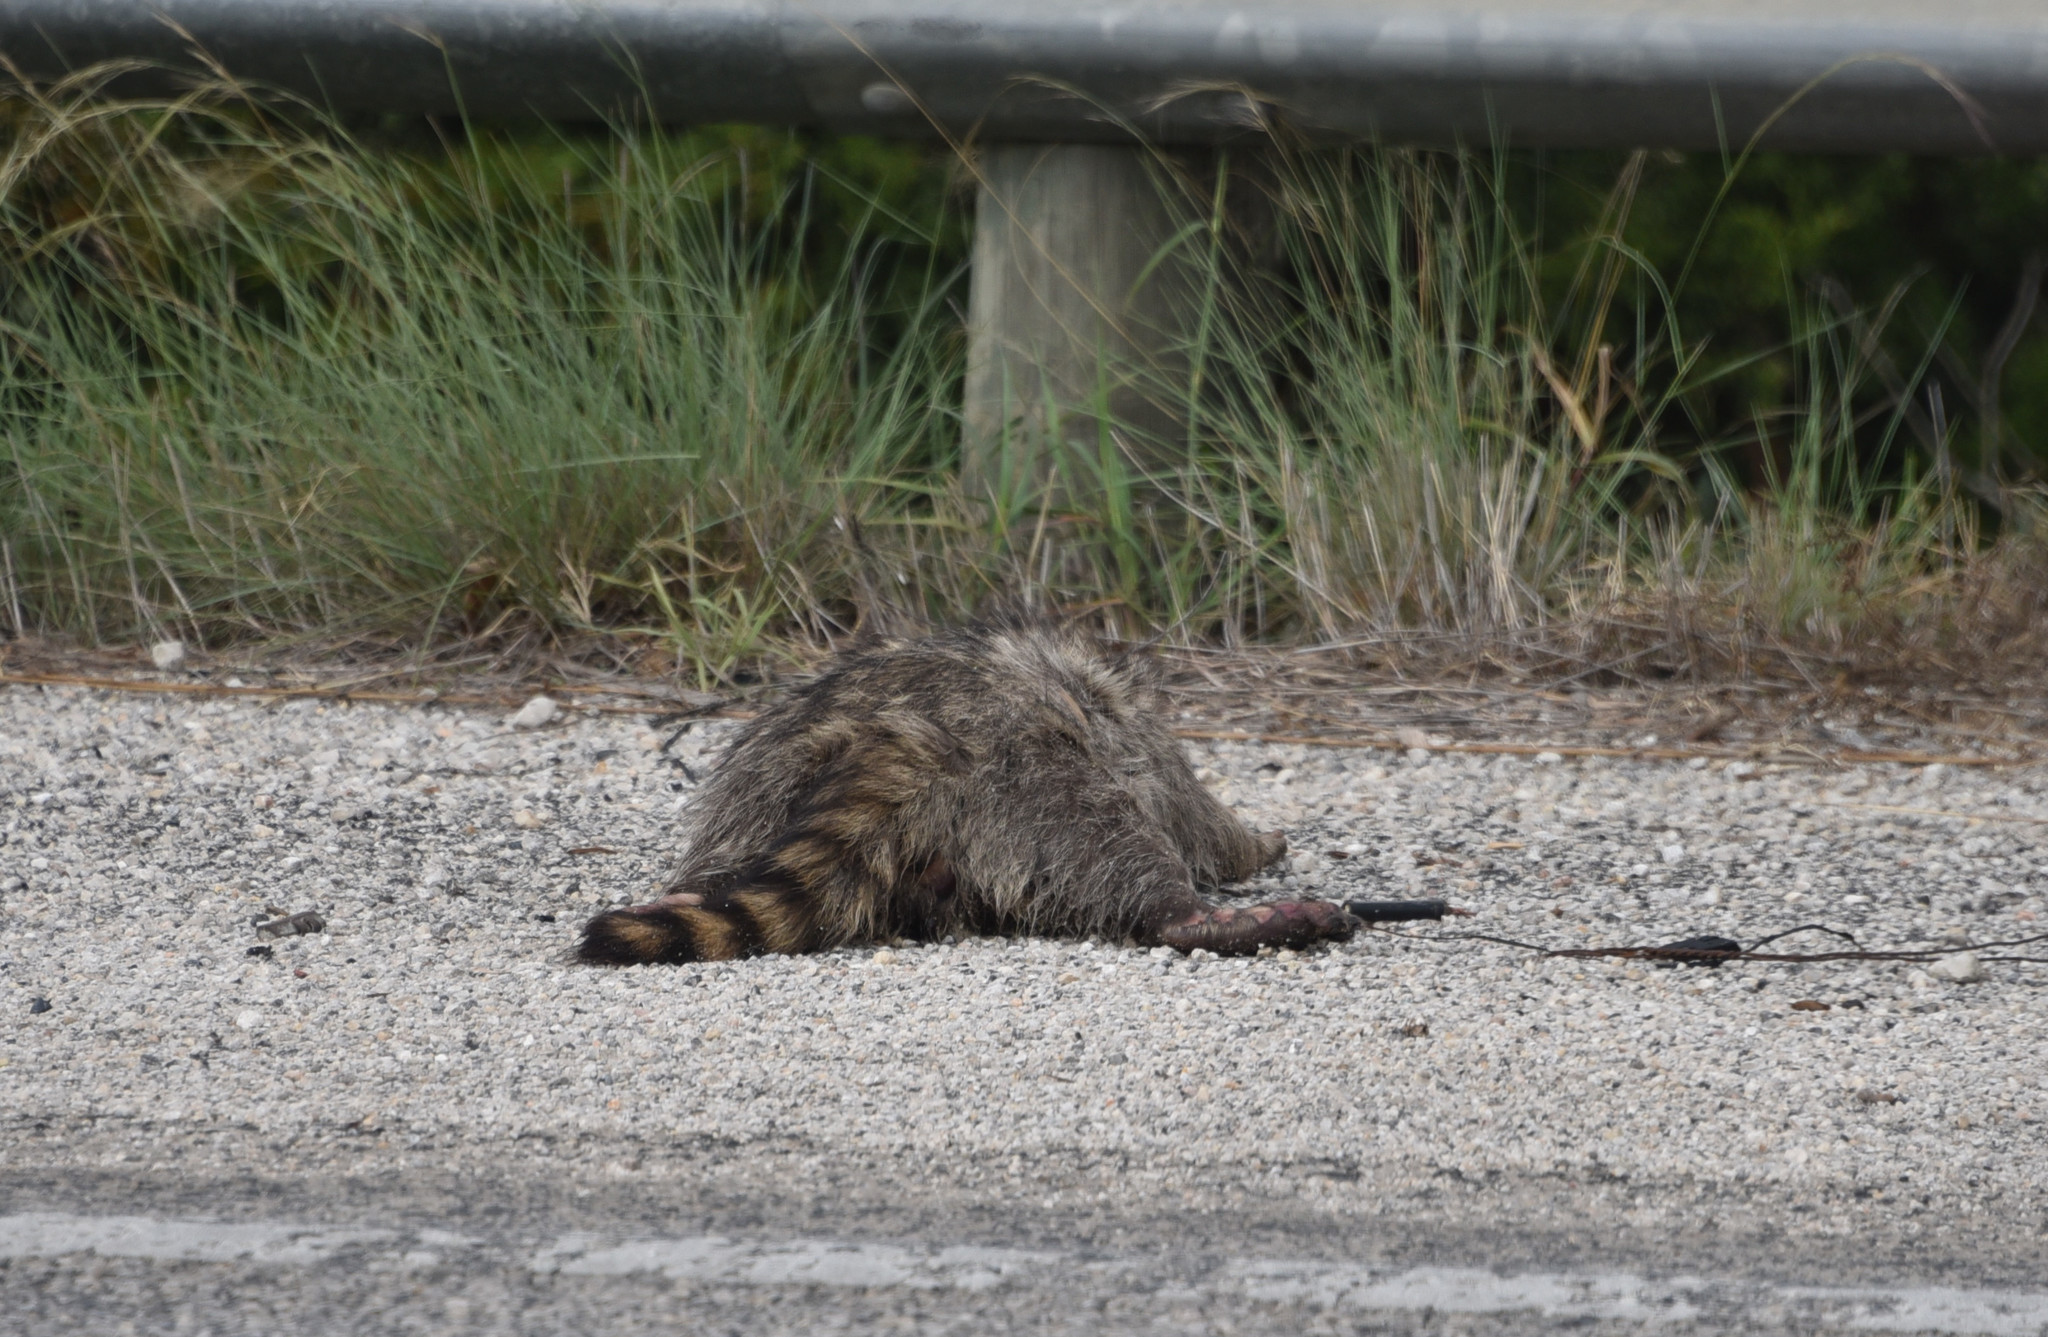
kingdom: Animalia
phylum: Chordata
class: Mammalia
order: Carnivora
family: Procyonidae
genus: Procyon
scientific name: Procyon lotor
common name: Raccoon
